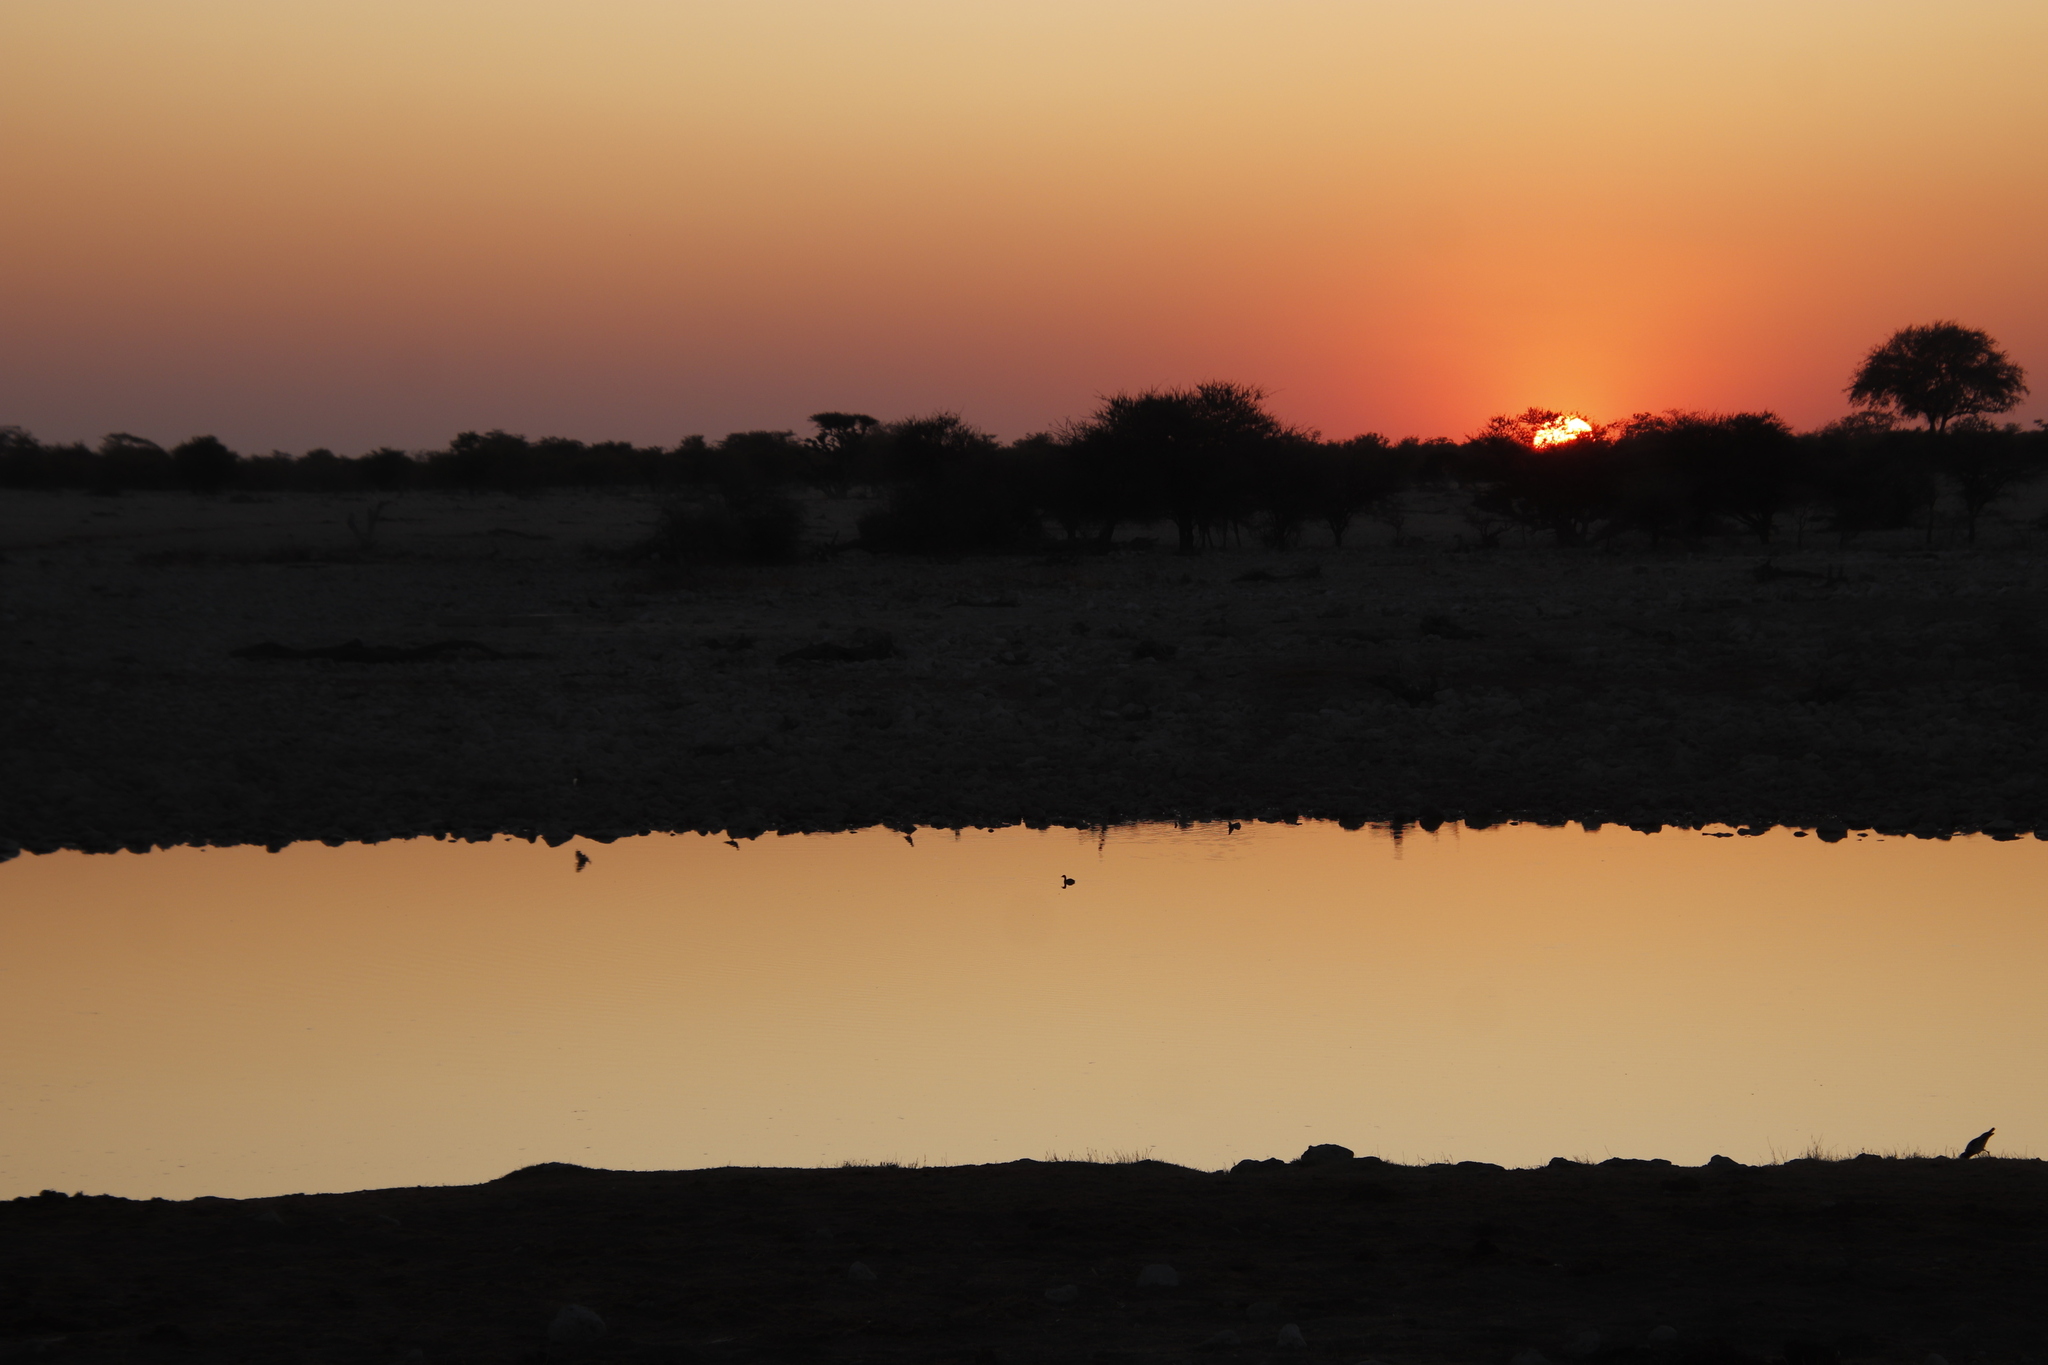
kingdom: Animalia
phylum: Chordata
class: Aves
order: Podicipediformes
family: Podicipedidae
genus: Tachybaptus
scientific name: Tachybaptus ruficollis
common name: Little grebe
